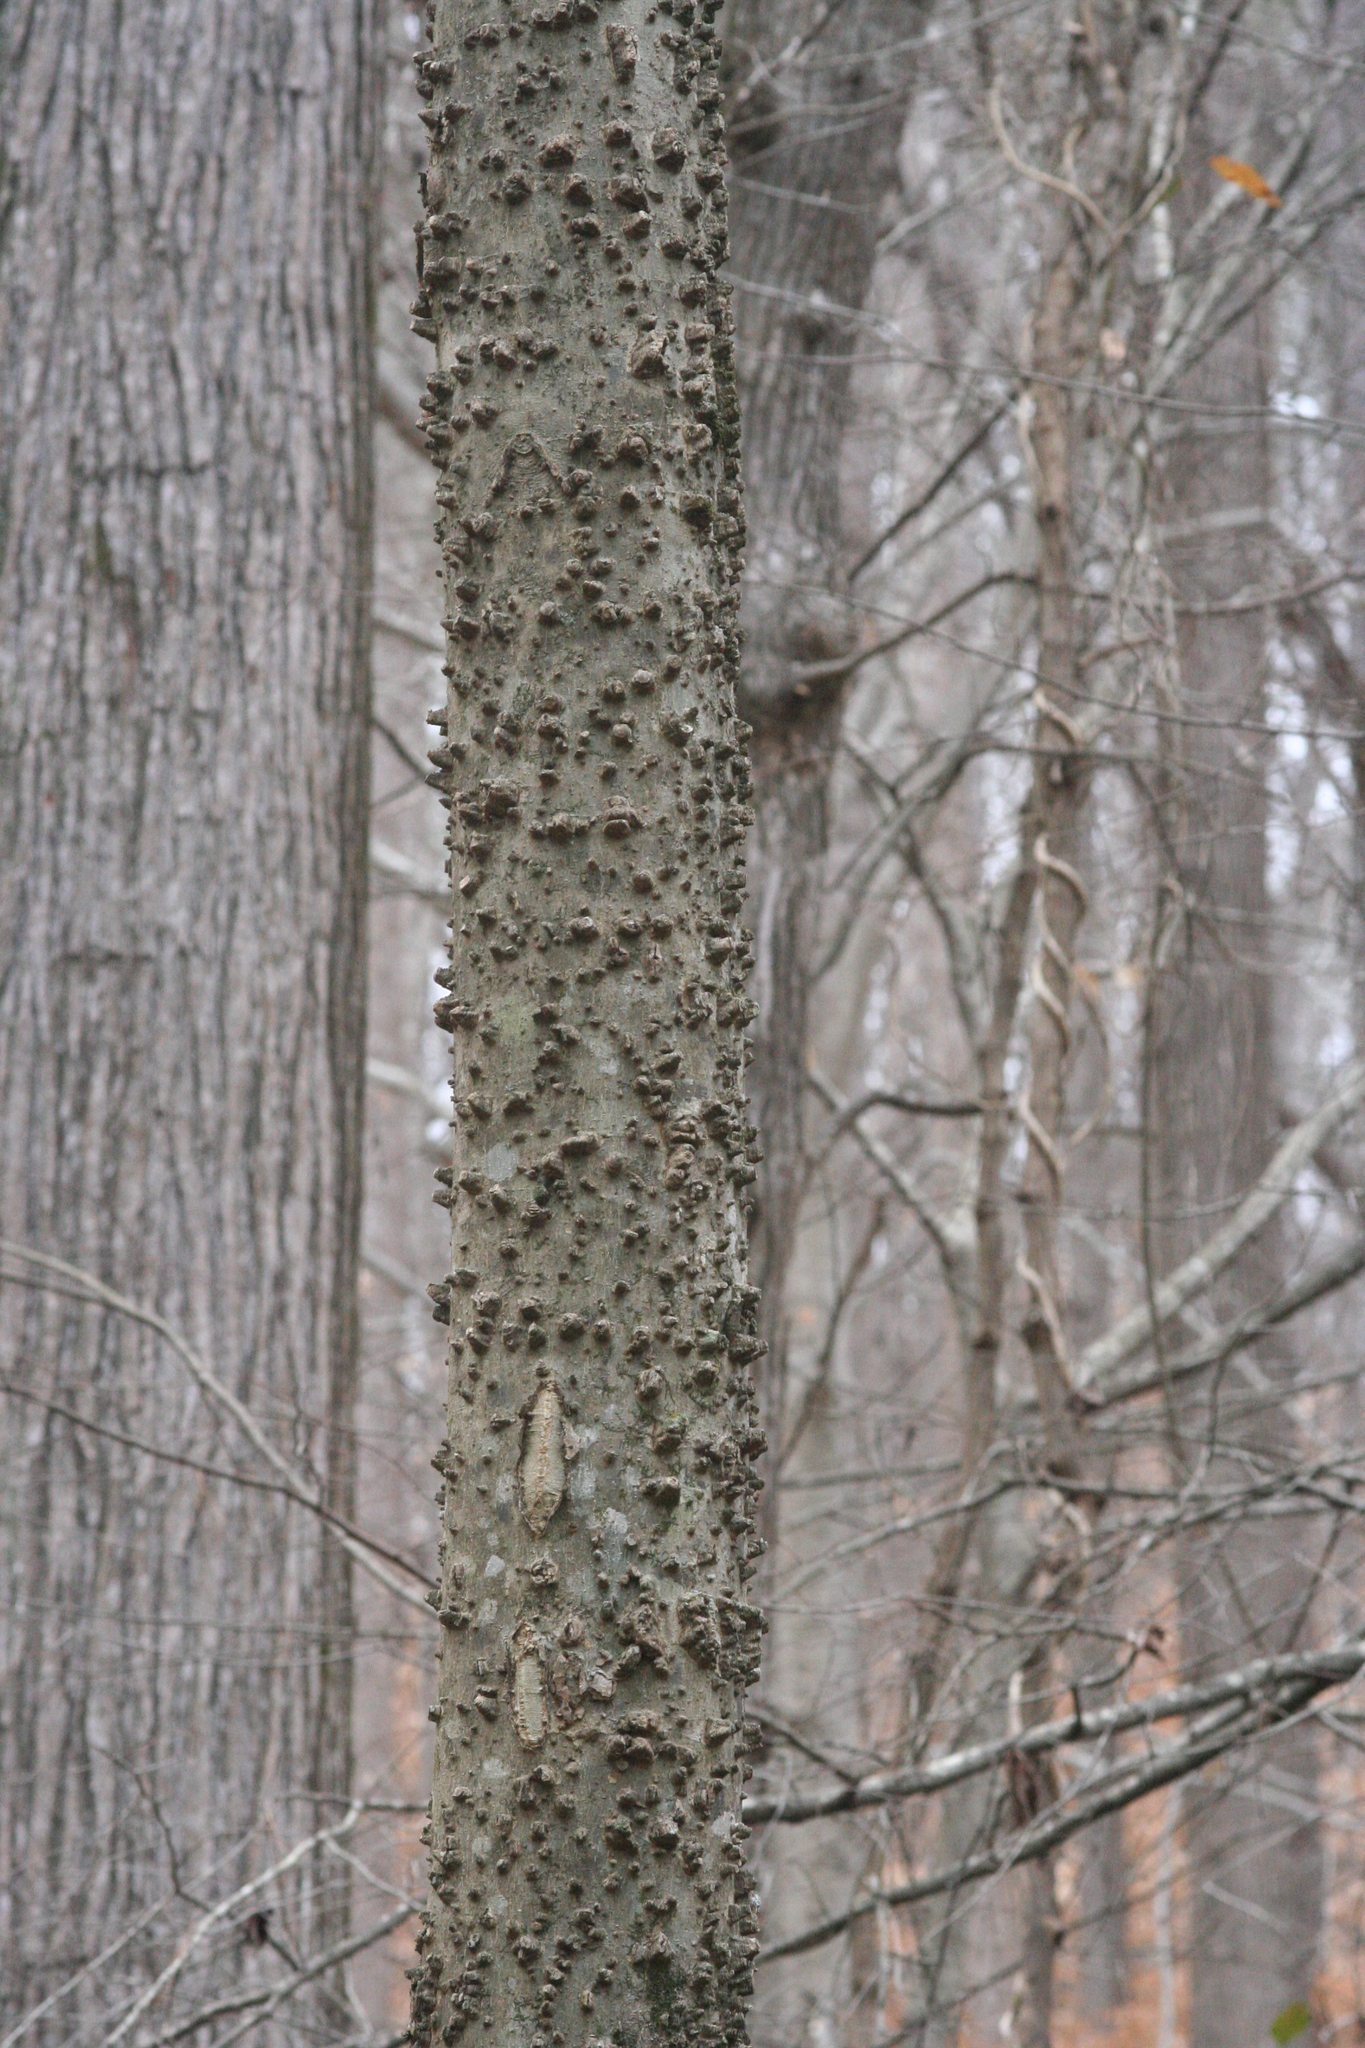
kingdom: Plantae
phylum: Tracheophyta
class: Magnoliopsida
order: Rosales
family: Cannabaceae
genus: Celtis
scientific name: Celtis occidentalis
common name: Common hackberry
